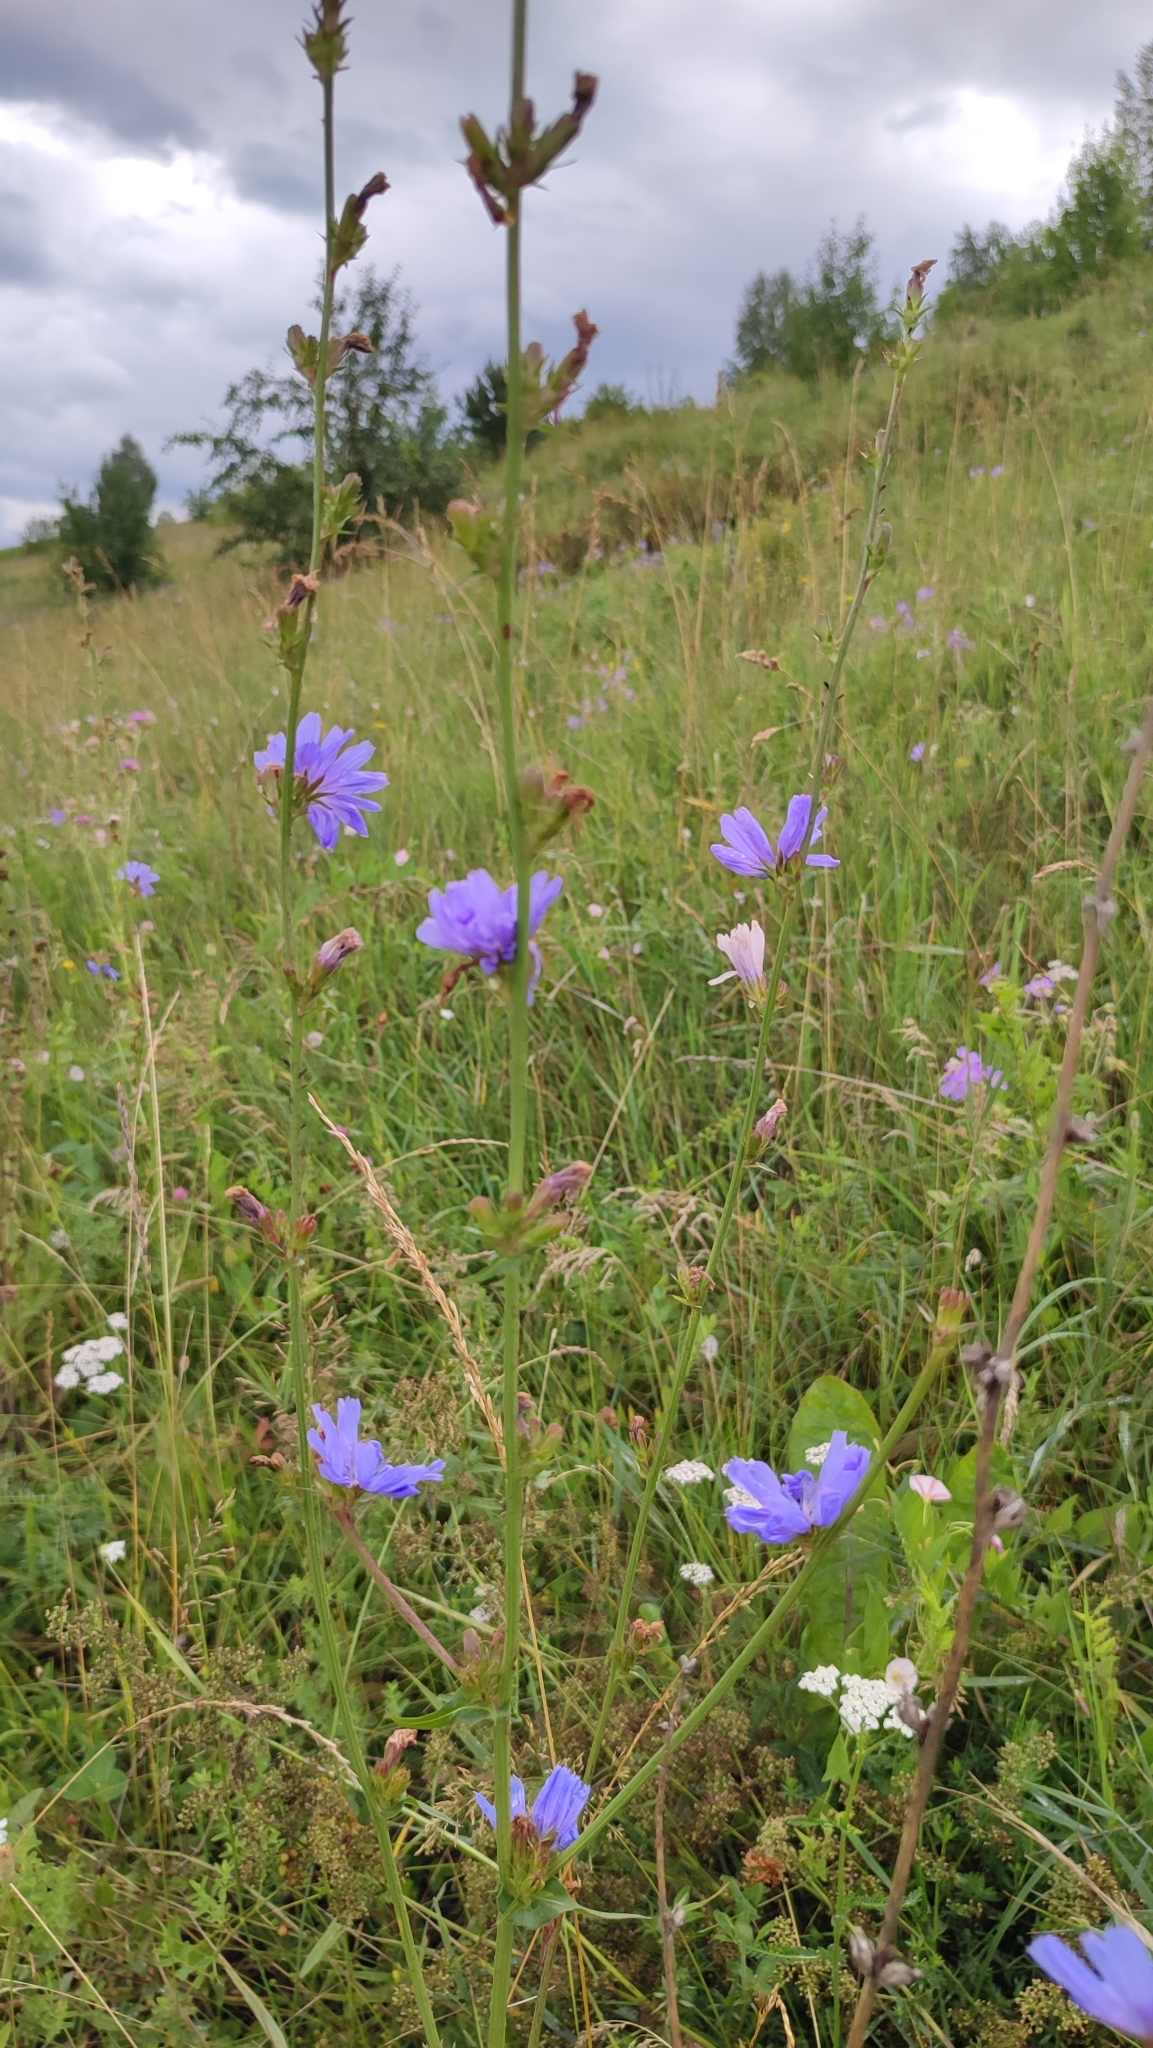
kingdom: Plantae
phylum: Tracheophyta
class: Magnoliopsida
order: Asterales
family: Asteraceae
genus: Cichorium
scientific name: Cichorium intybus
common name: Chicory
